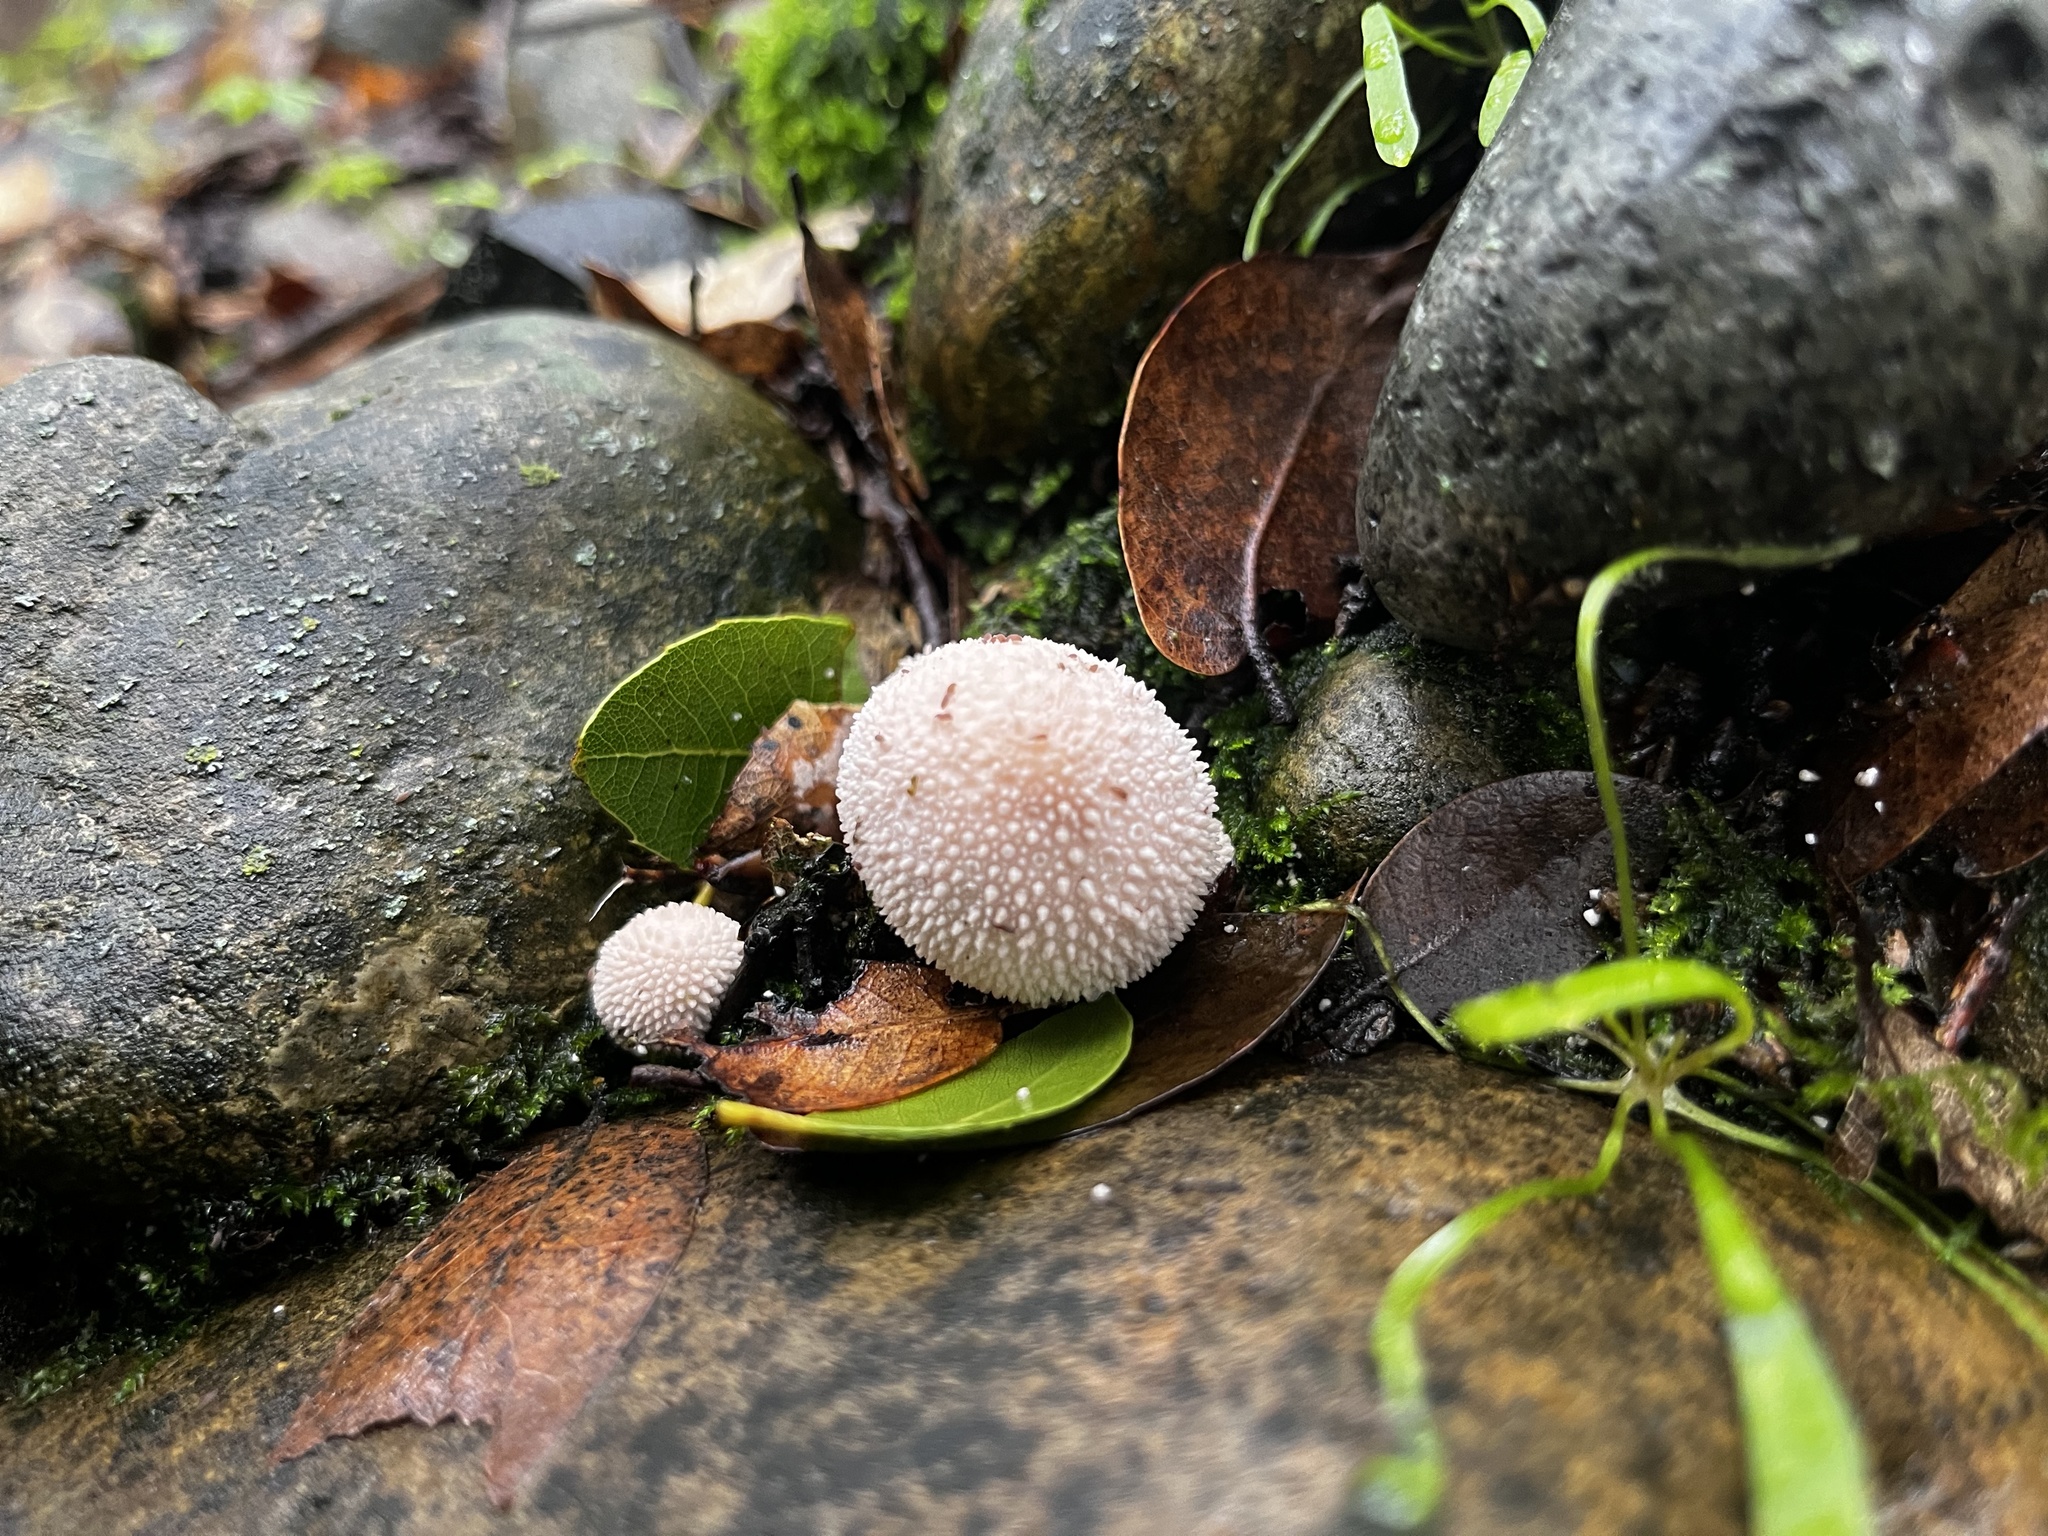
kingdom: Fungi
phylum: Basidiomycota
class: Agaricomycetes
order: Agaricales
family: Lycoperdaceae
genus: Lycoperdon
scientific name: Lycoperdon perlatum
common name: Common puffball
